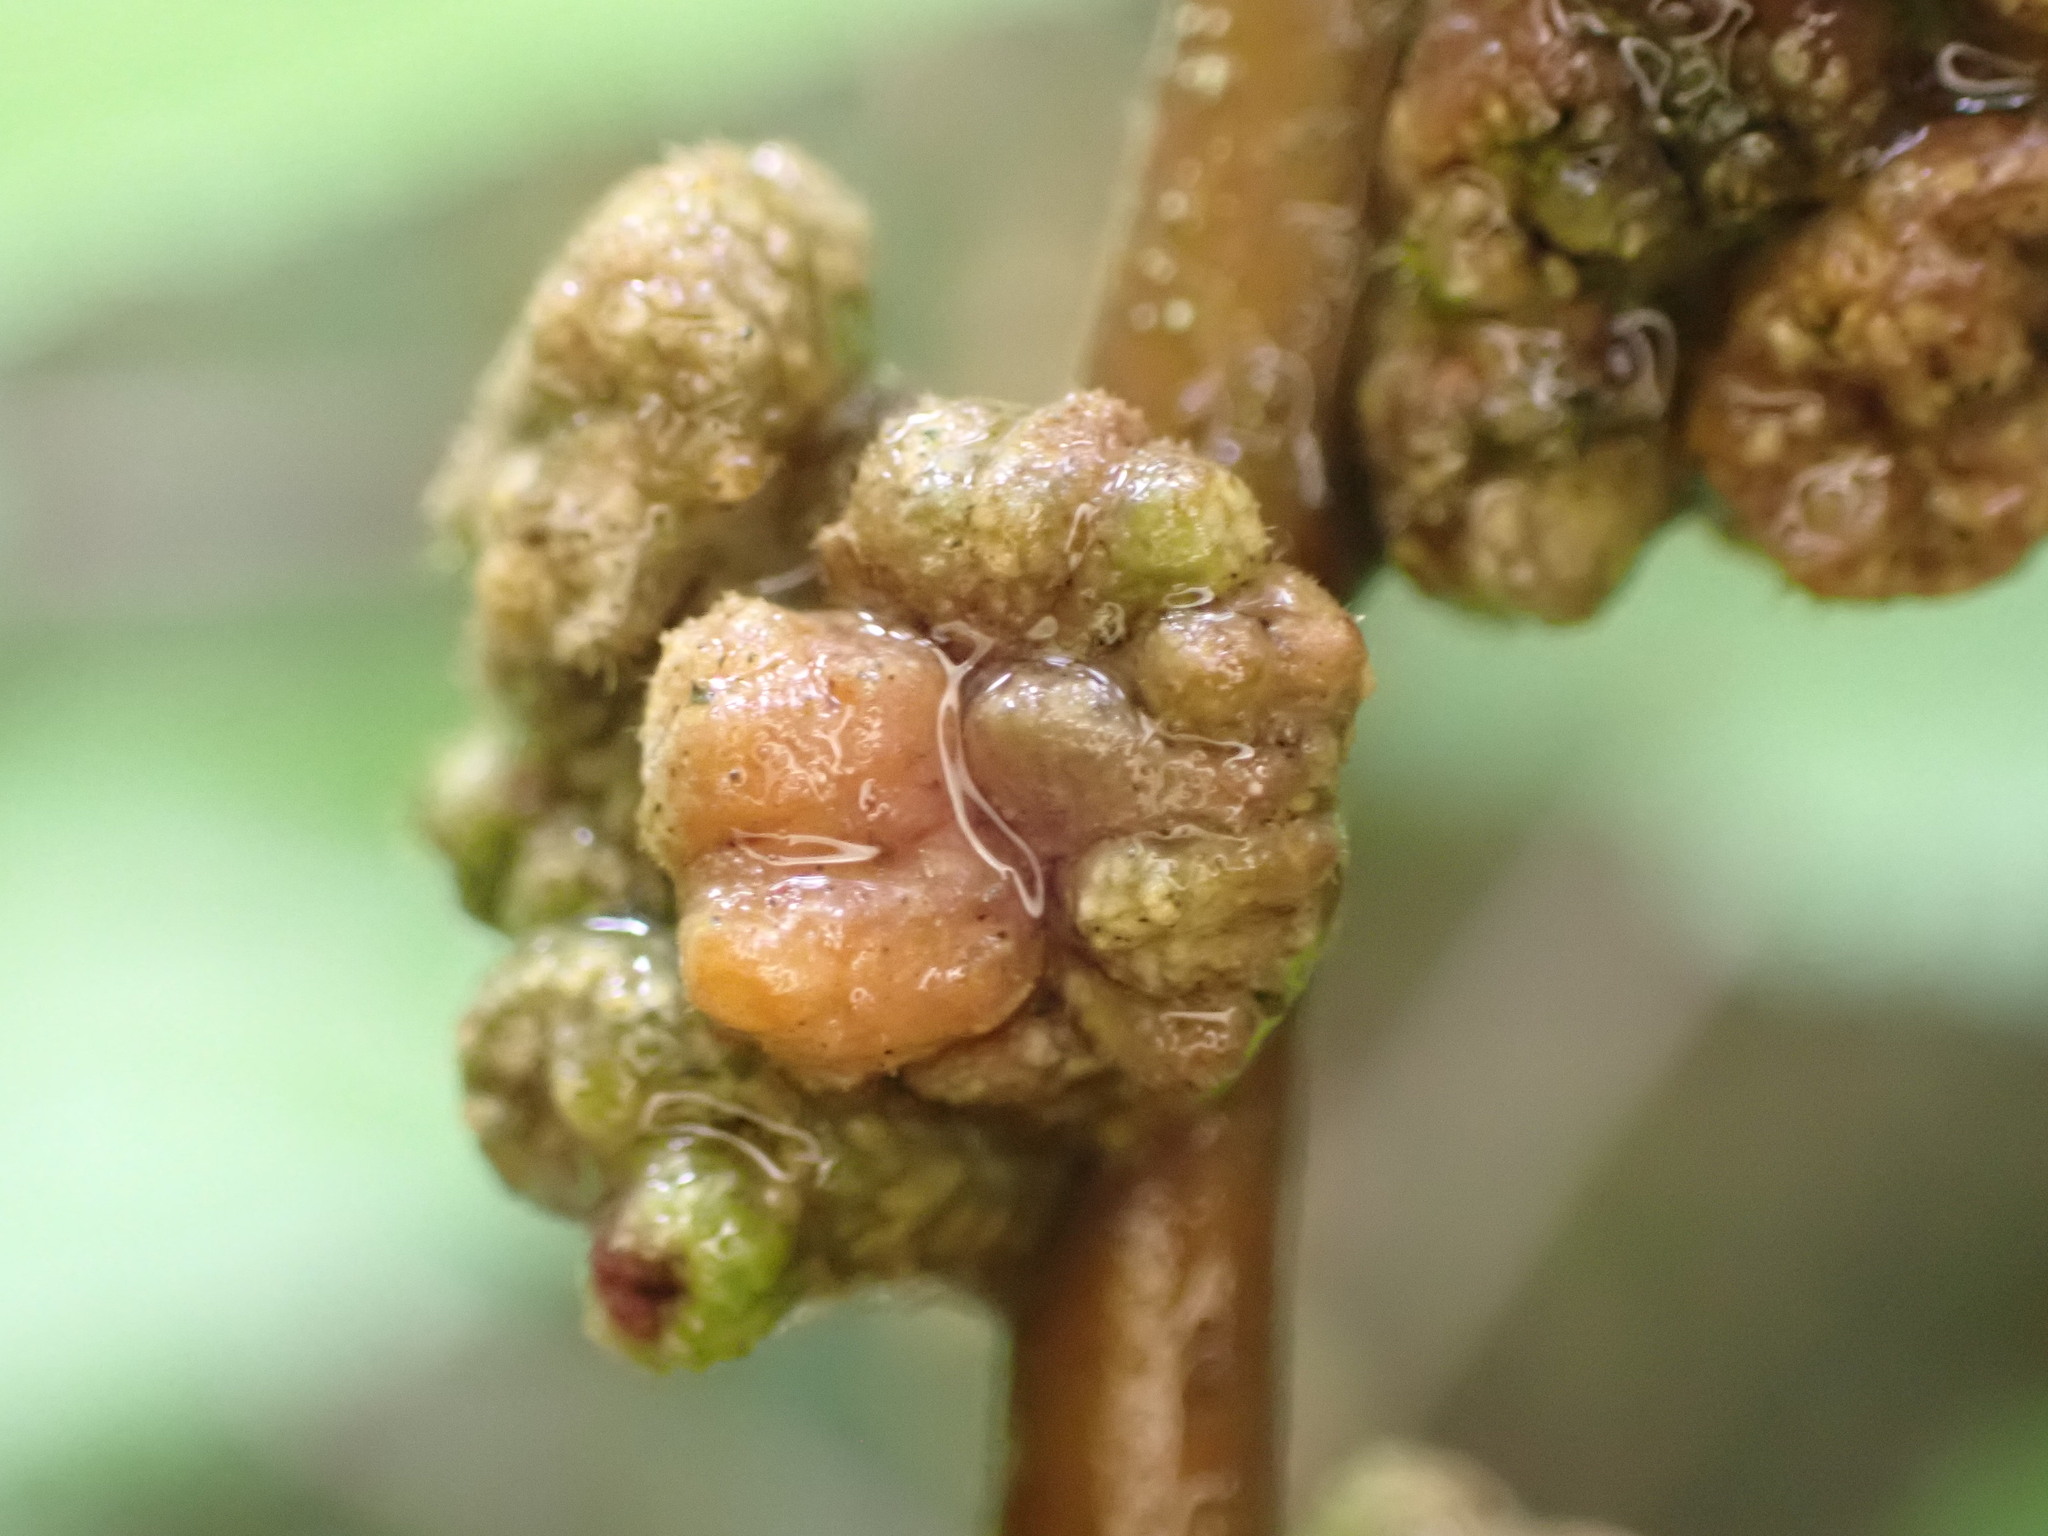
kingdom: Animalia
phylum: Arthropoda
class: Arachnida
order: Trombidiformes
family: Eriophyidae
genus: Eriophyes
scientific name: Eriophyes hoheriae
